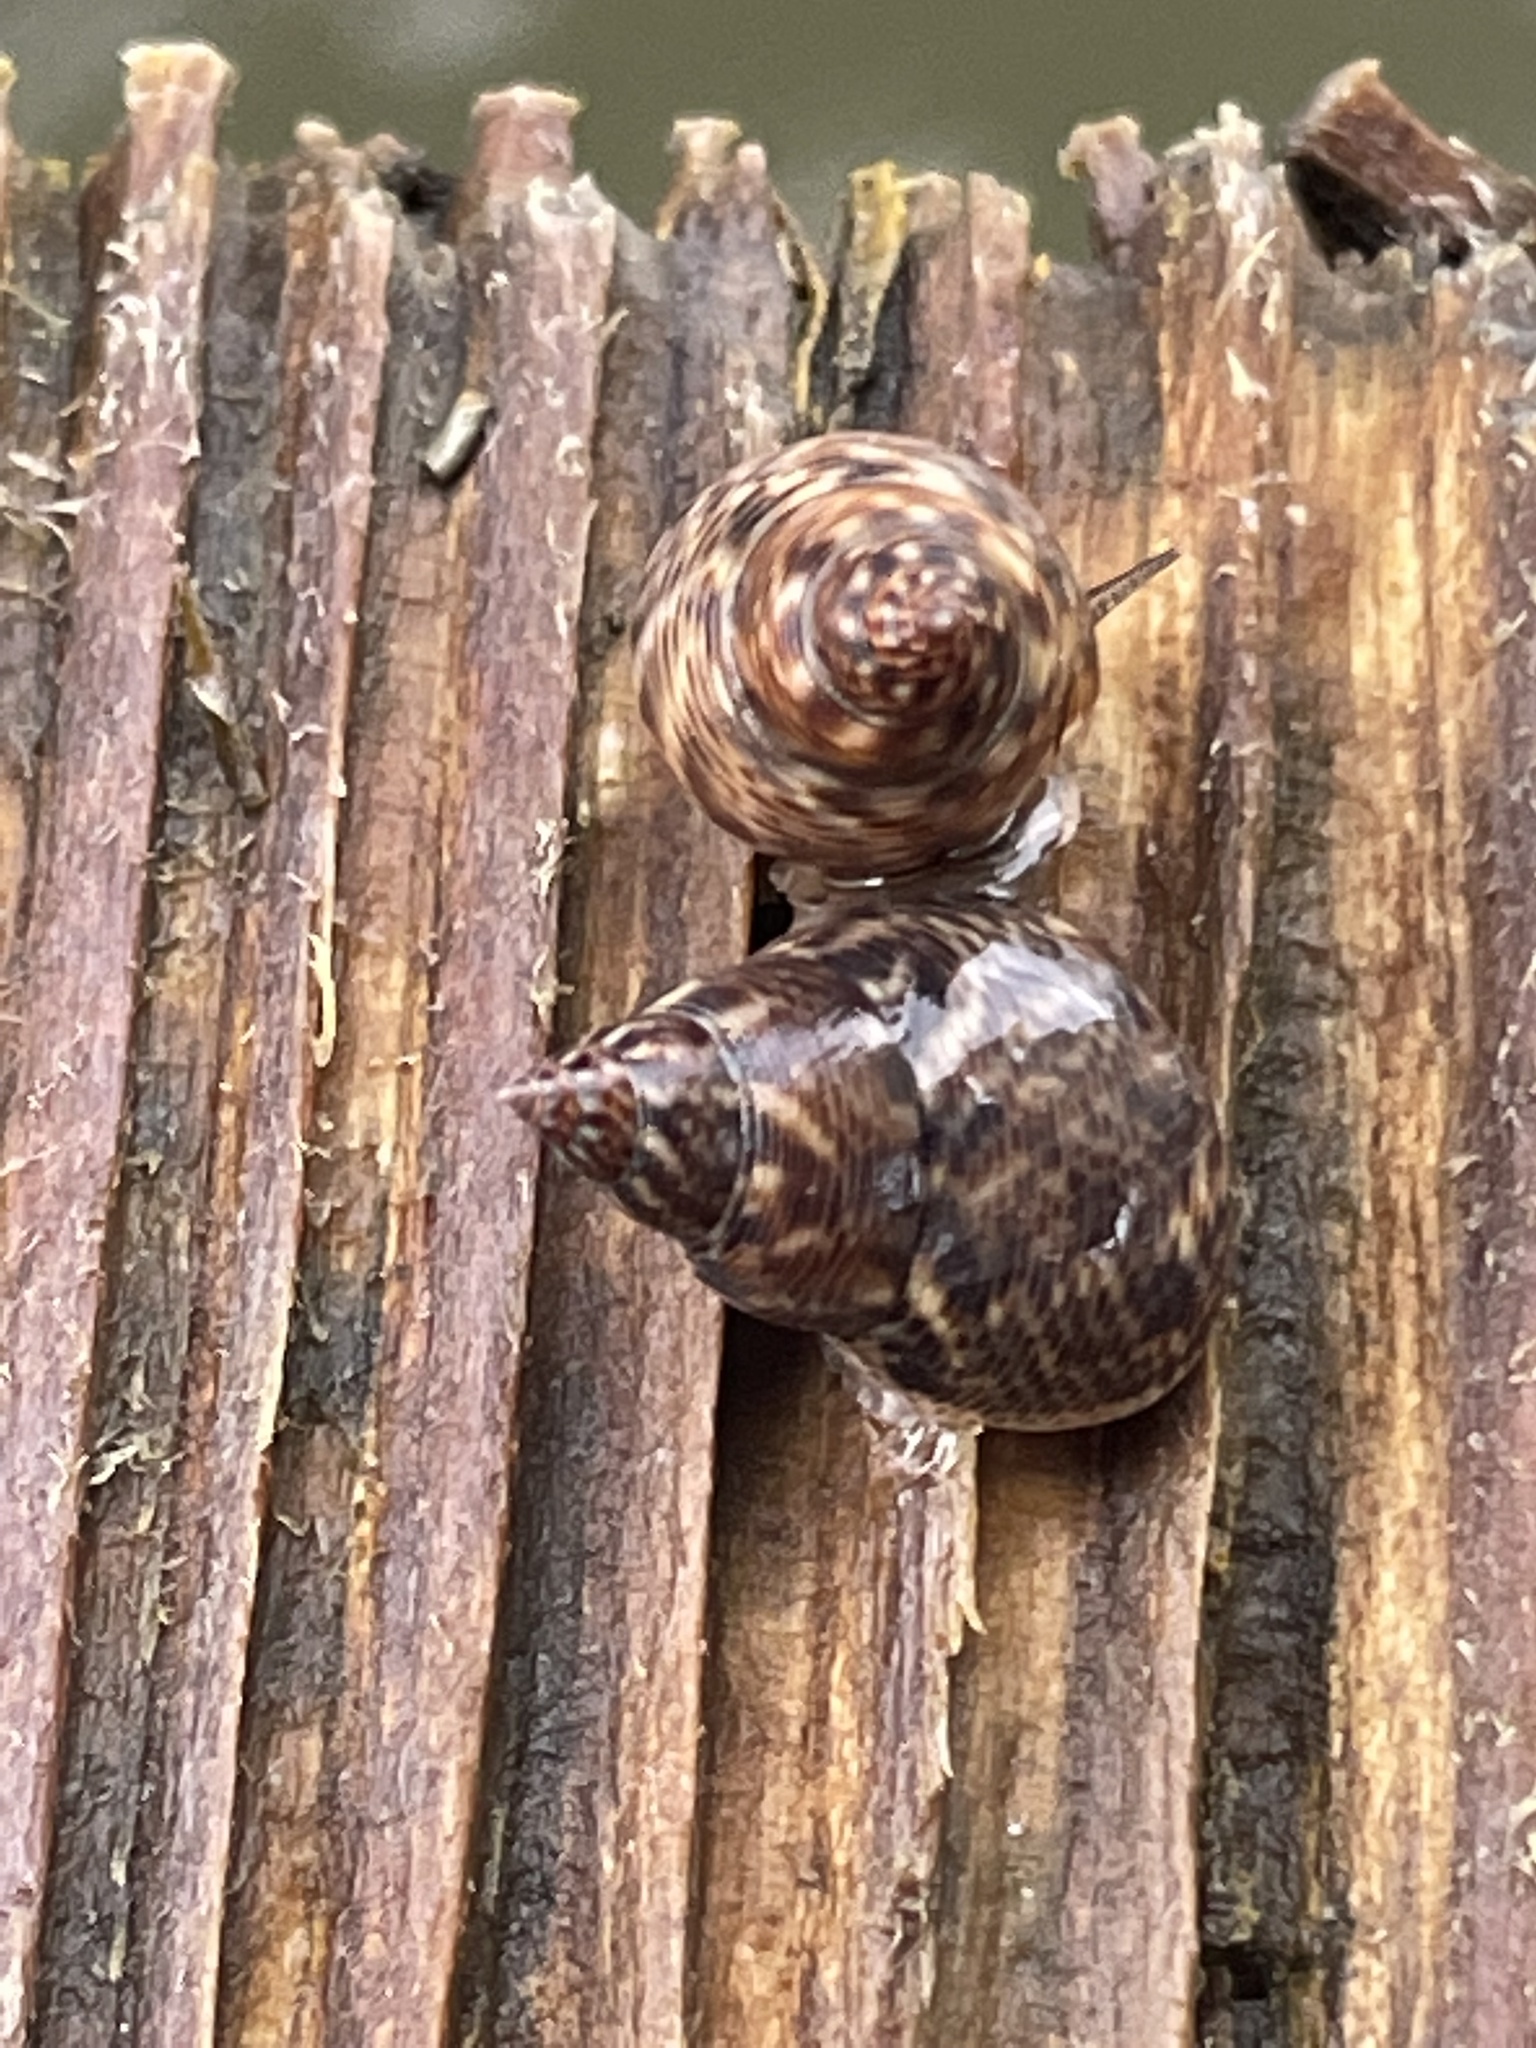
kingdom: Animalia
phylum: Mollusca
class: Gastropoda
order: Littorinimorpha
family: Littorinidae
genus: Littoraria
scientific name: Littoraria angulifera
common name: Mangrove periwinkle
